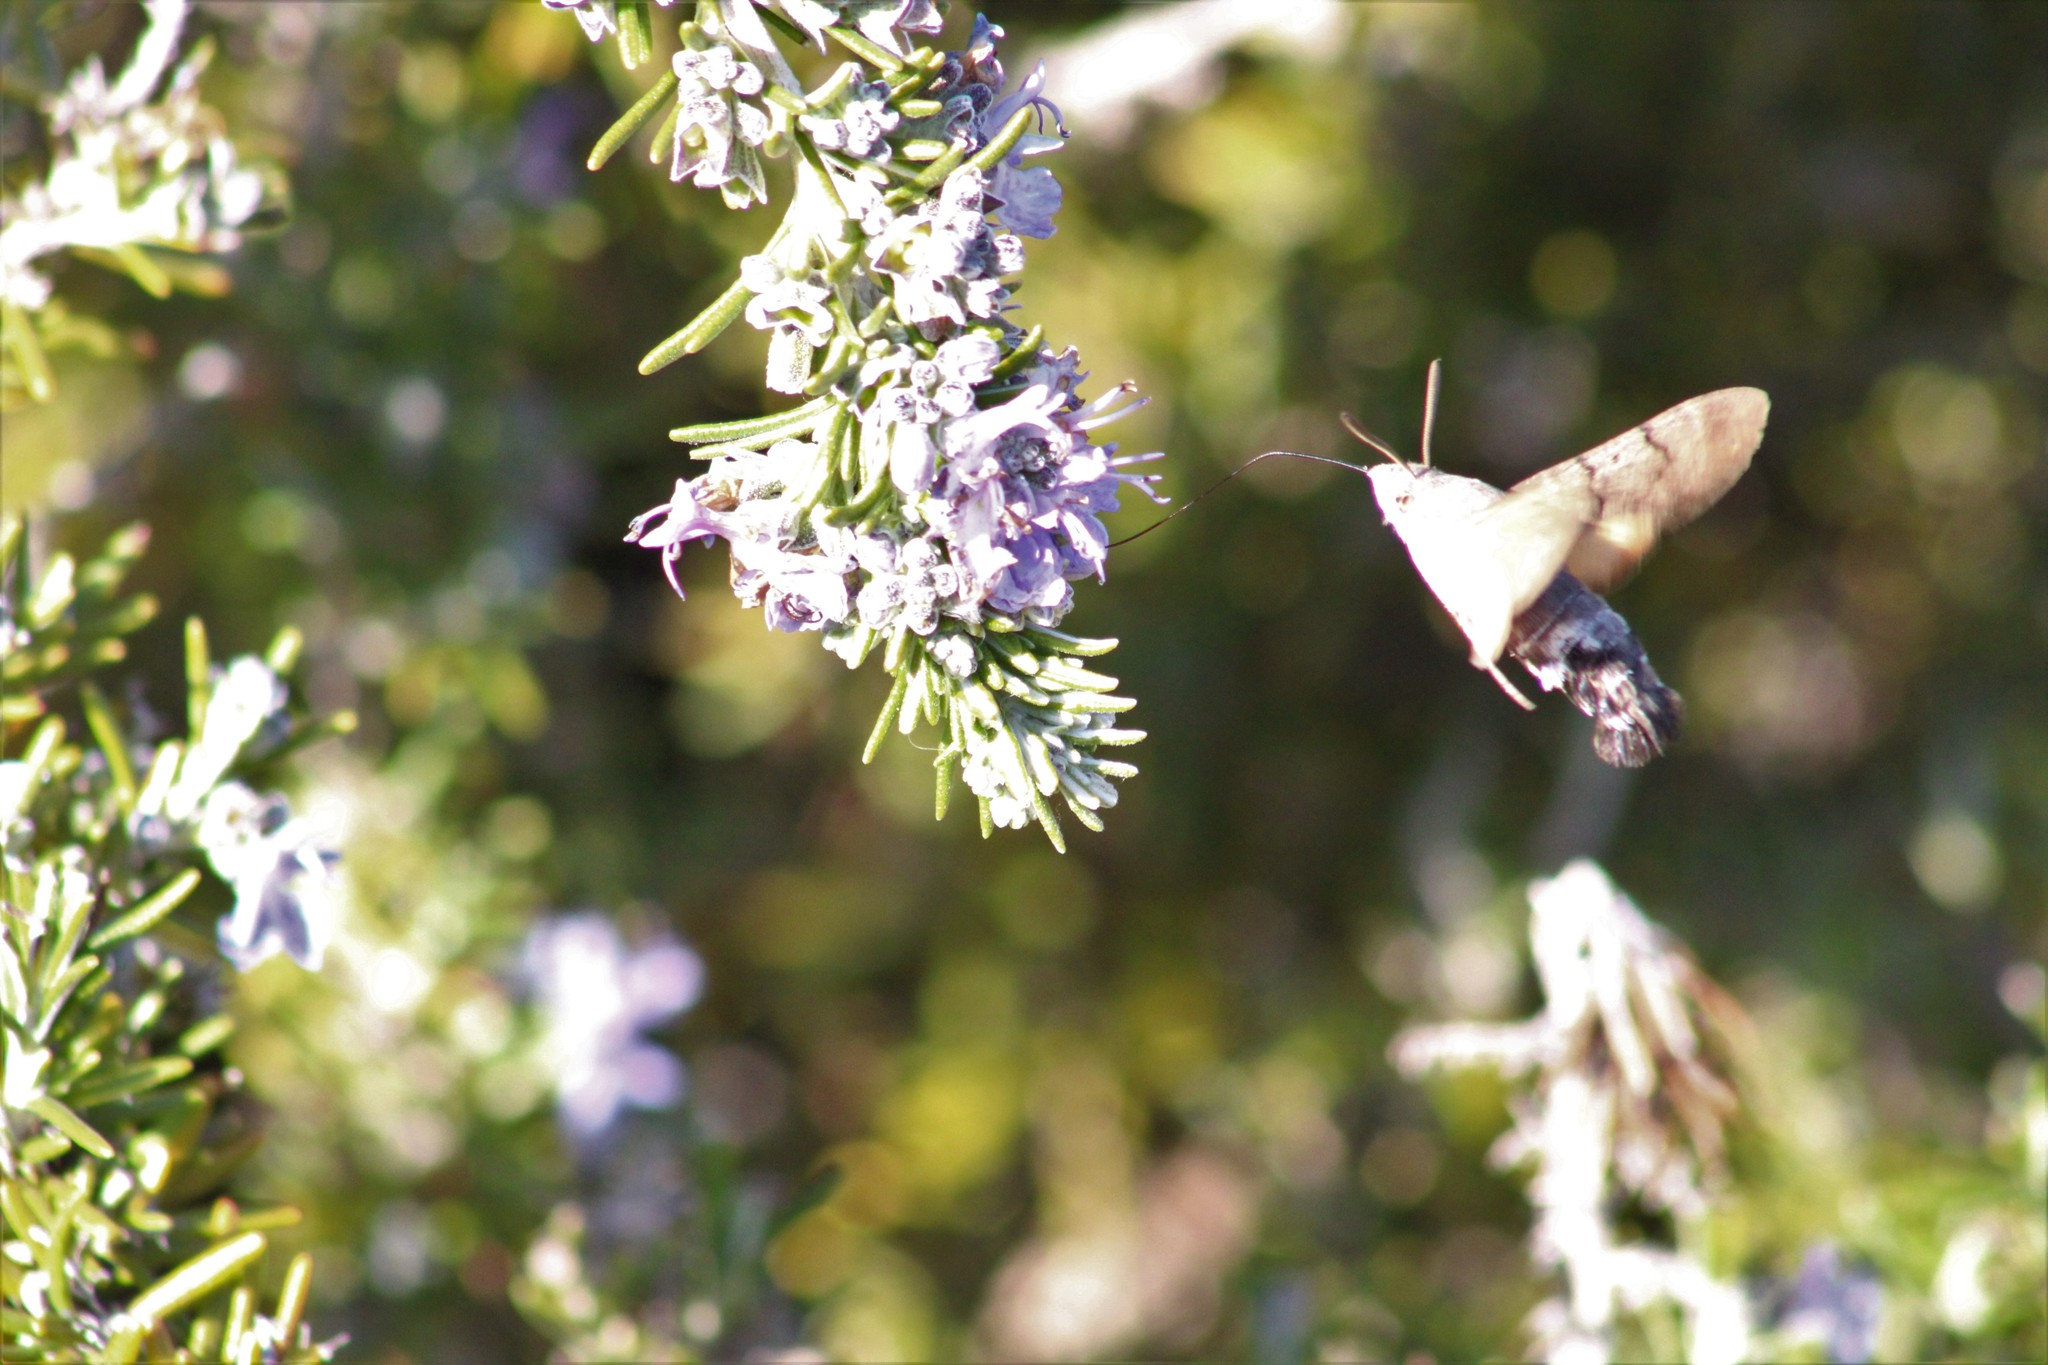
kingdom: Animalia
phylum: Arthropoda
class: Insecta
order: Lepidoptera
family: Sphingidae
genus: Macroglossum
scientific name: Macroglossum stellatarum
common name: Humming-bird hawk-moth
